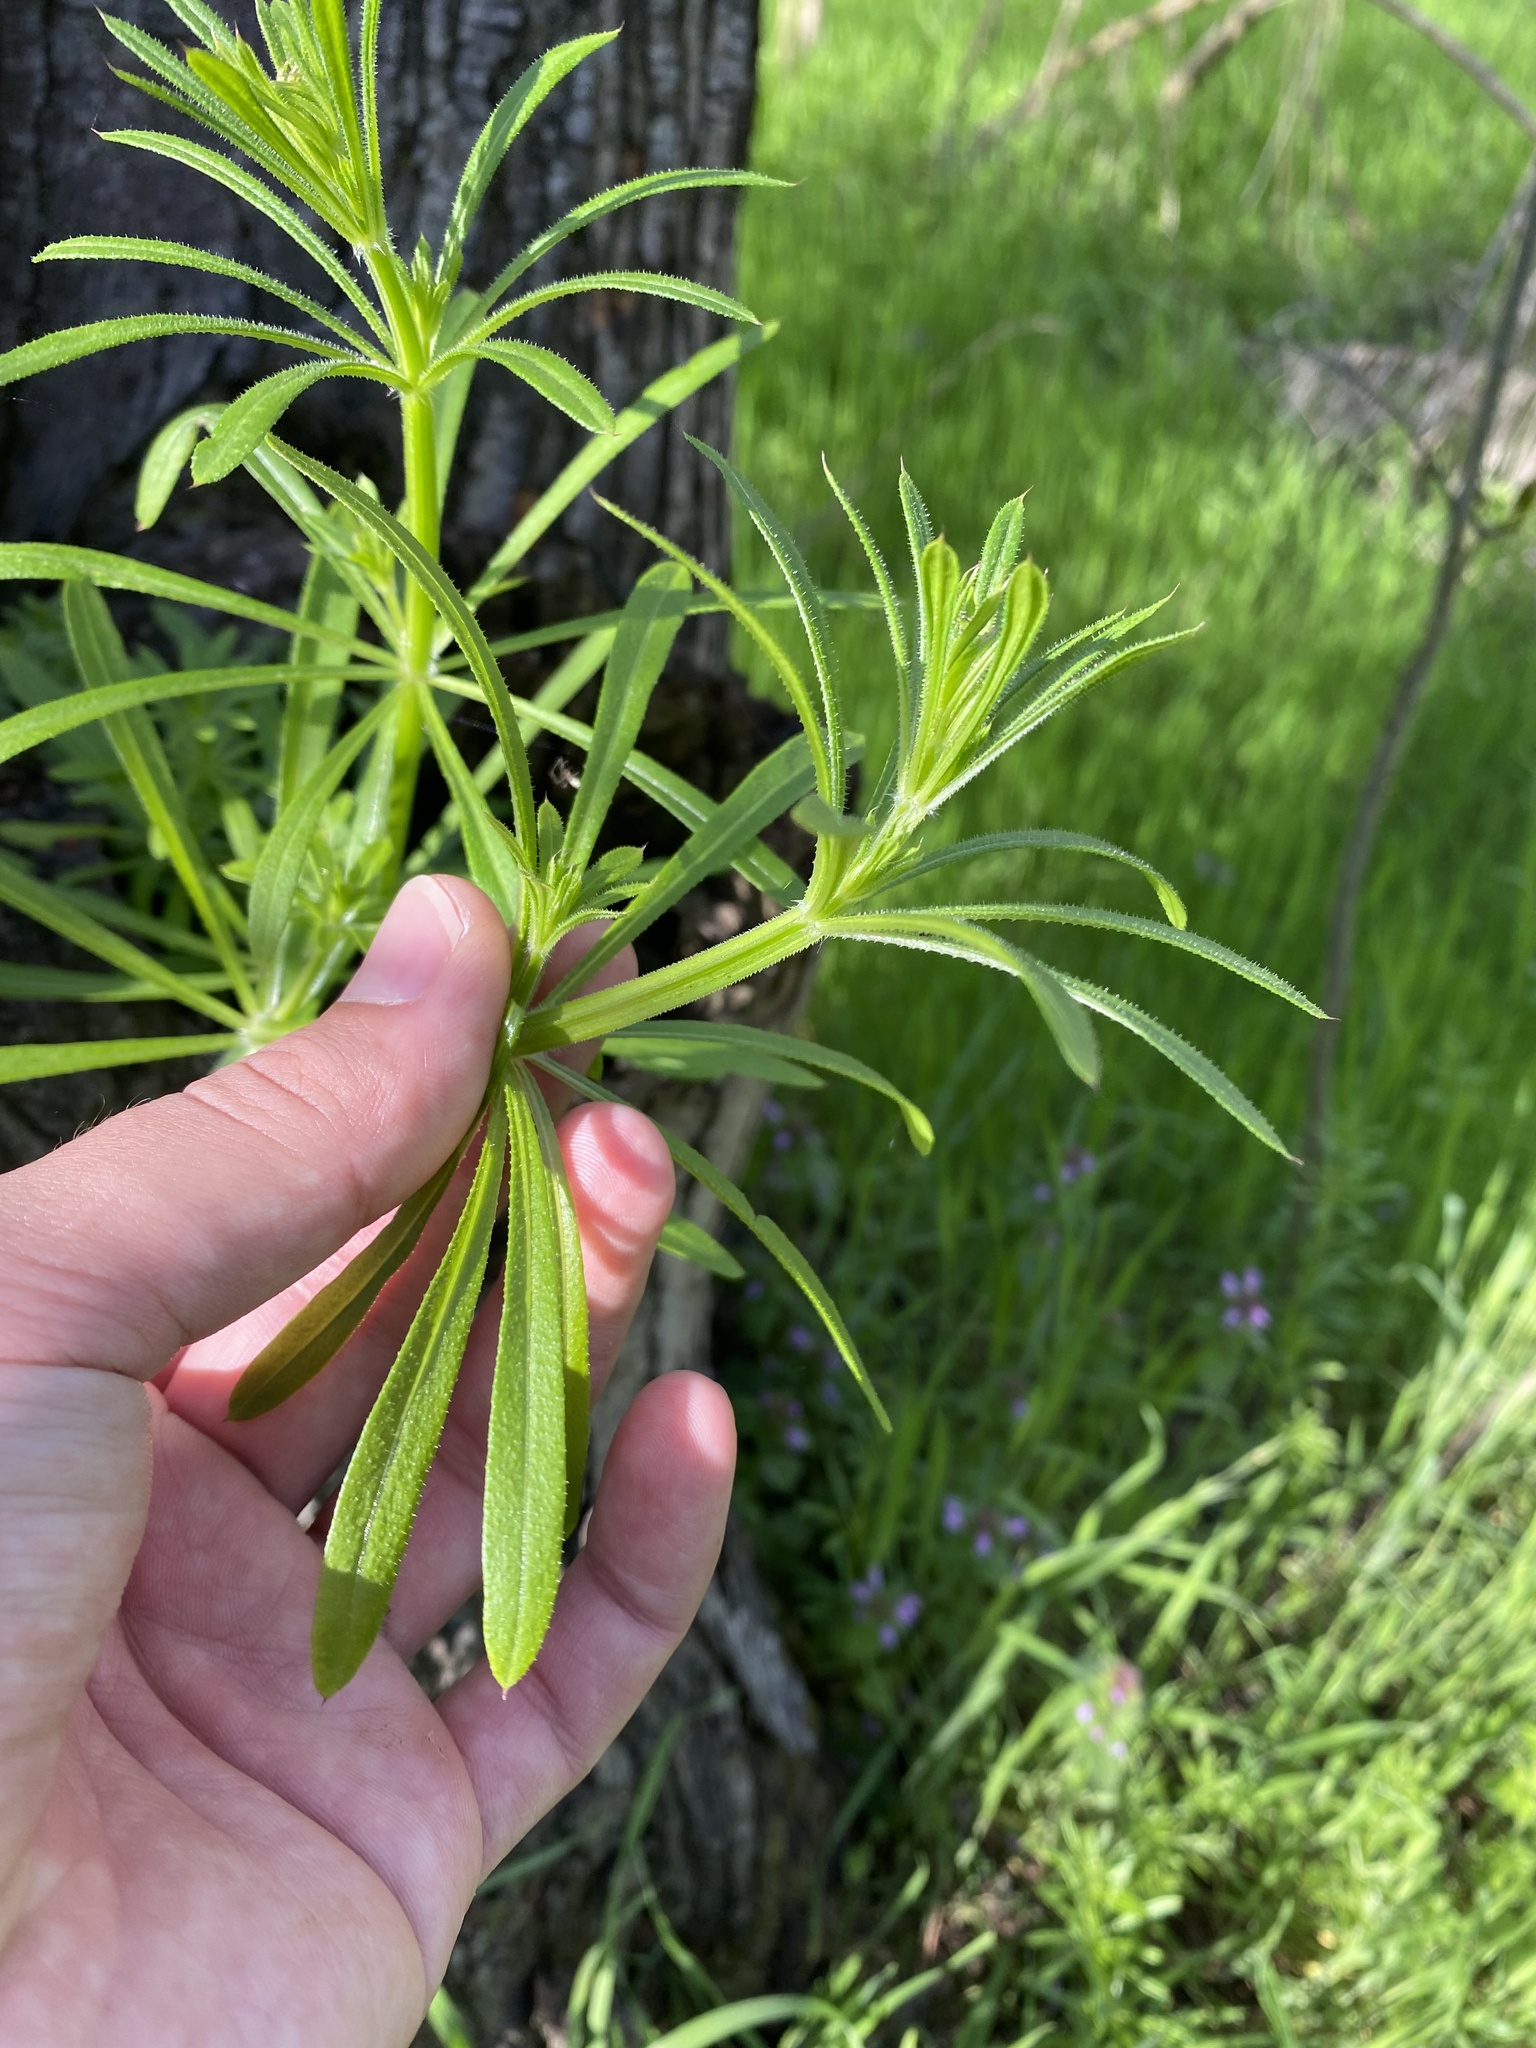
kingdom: Plantae
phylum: Tracheophyta
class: Magnoliopsida
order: Gentianales
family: Rubiaceae
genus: Galium
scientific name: Galium aparine
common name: Cleavers
